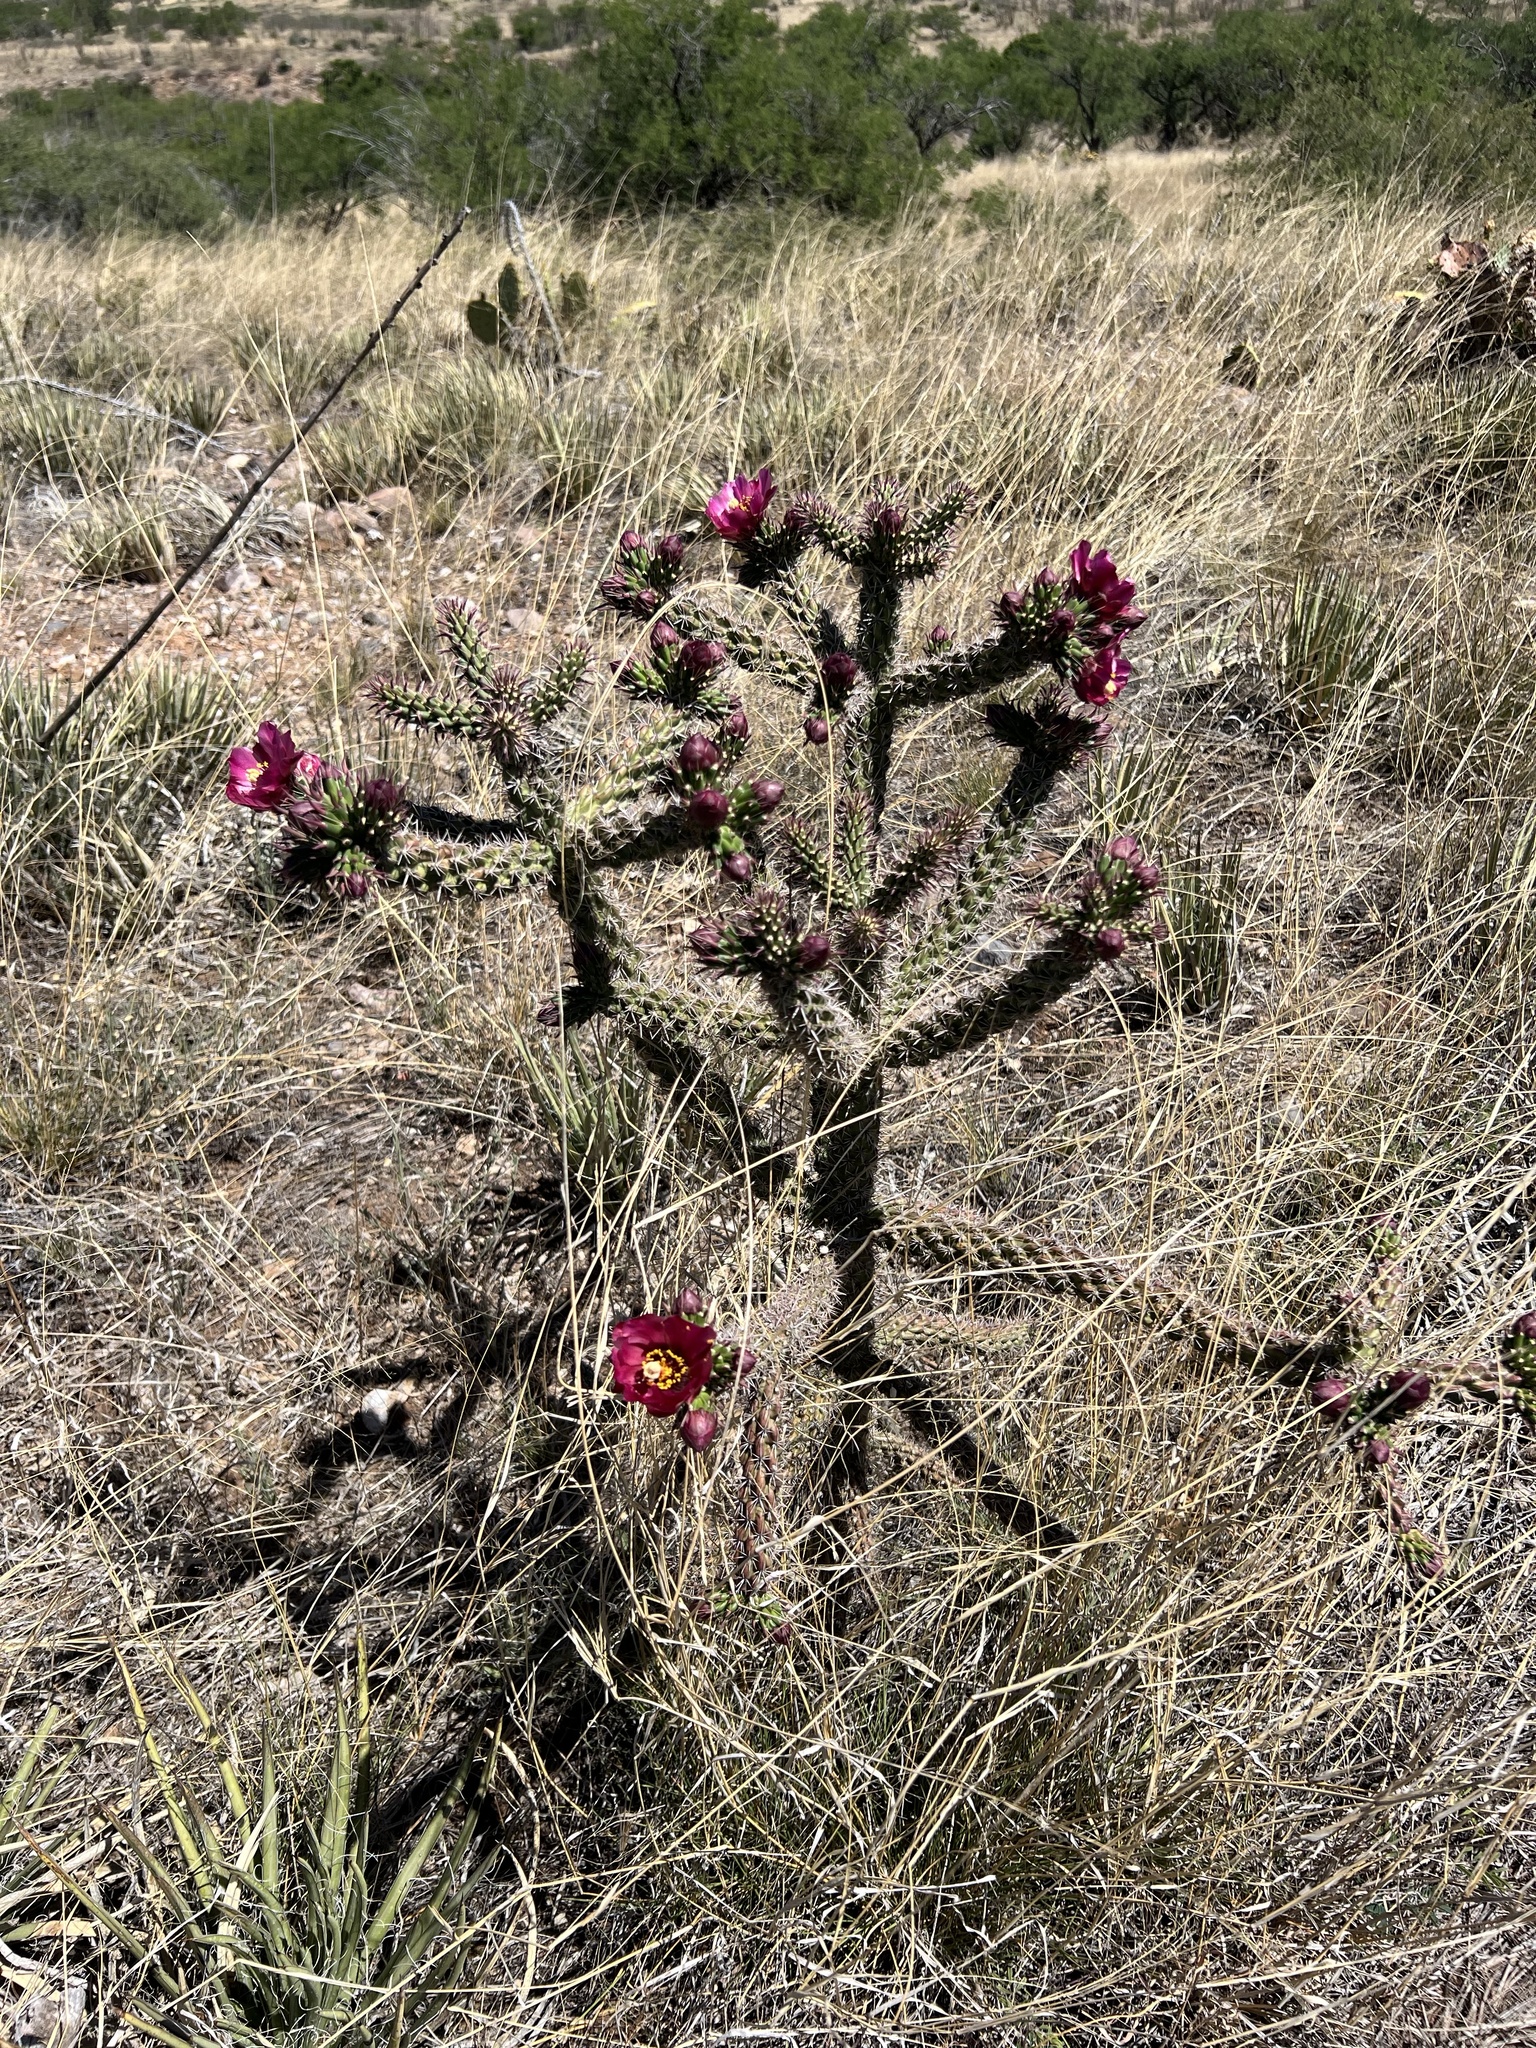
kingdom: Plantae
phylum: Tracheophyta
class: Magnoliopsida
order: Caryophyllales
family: Cactaceae
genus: Cylindropuntia
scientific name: Cylindropuntia imbricata
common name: Candelabrum cactus
